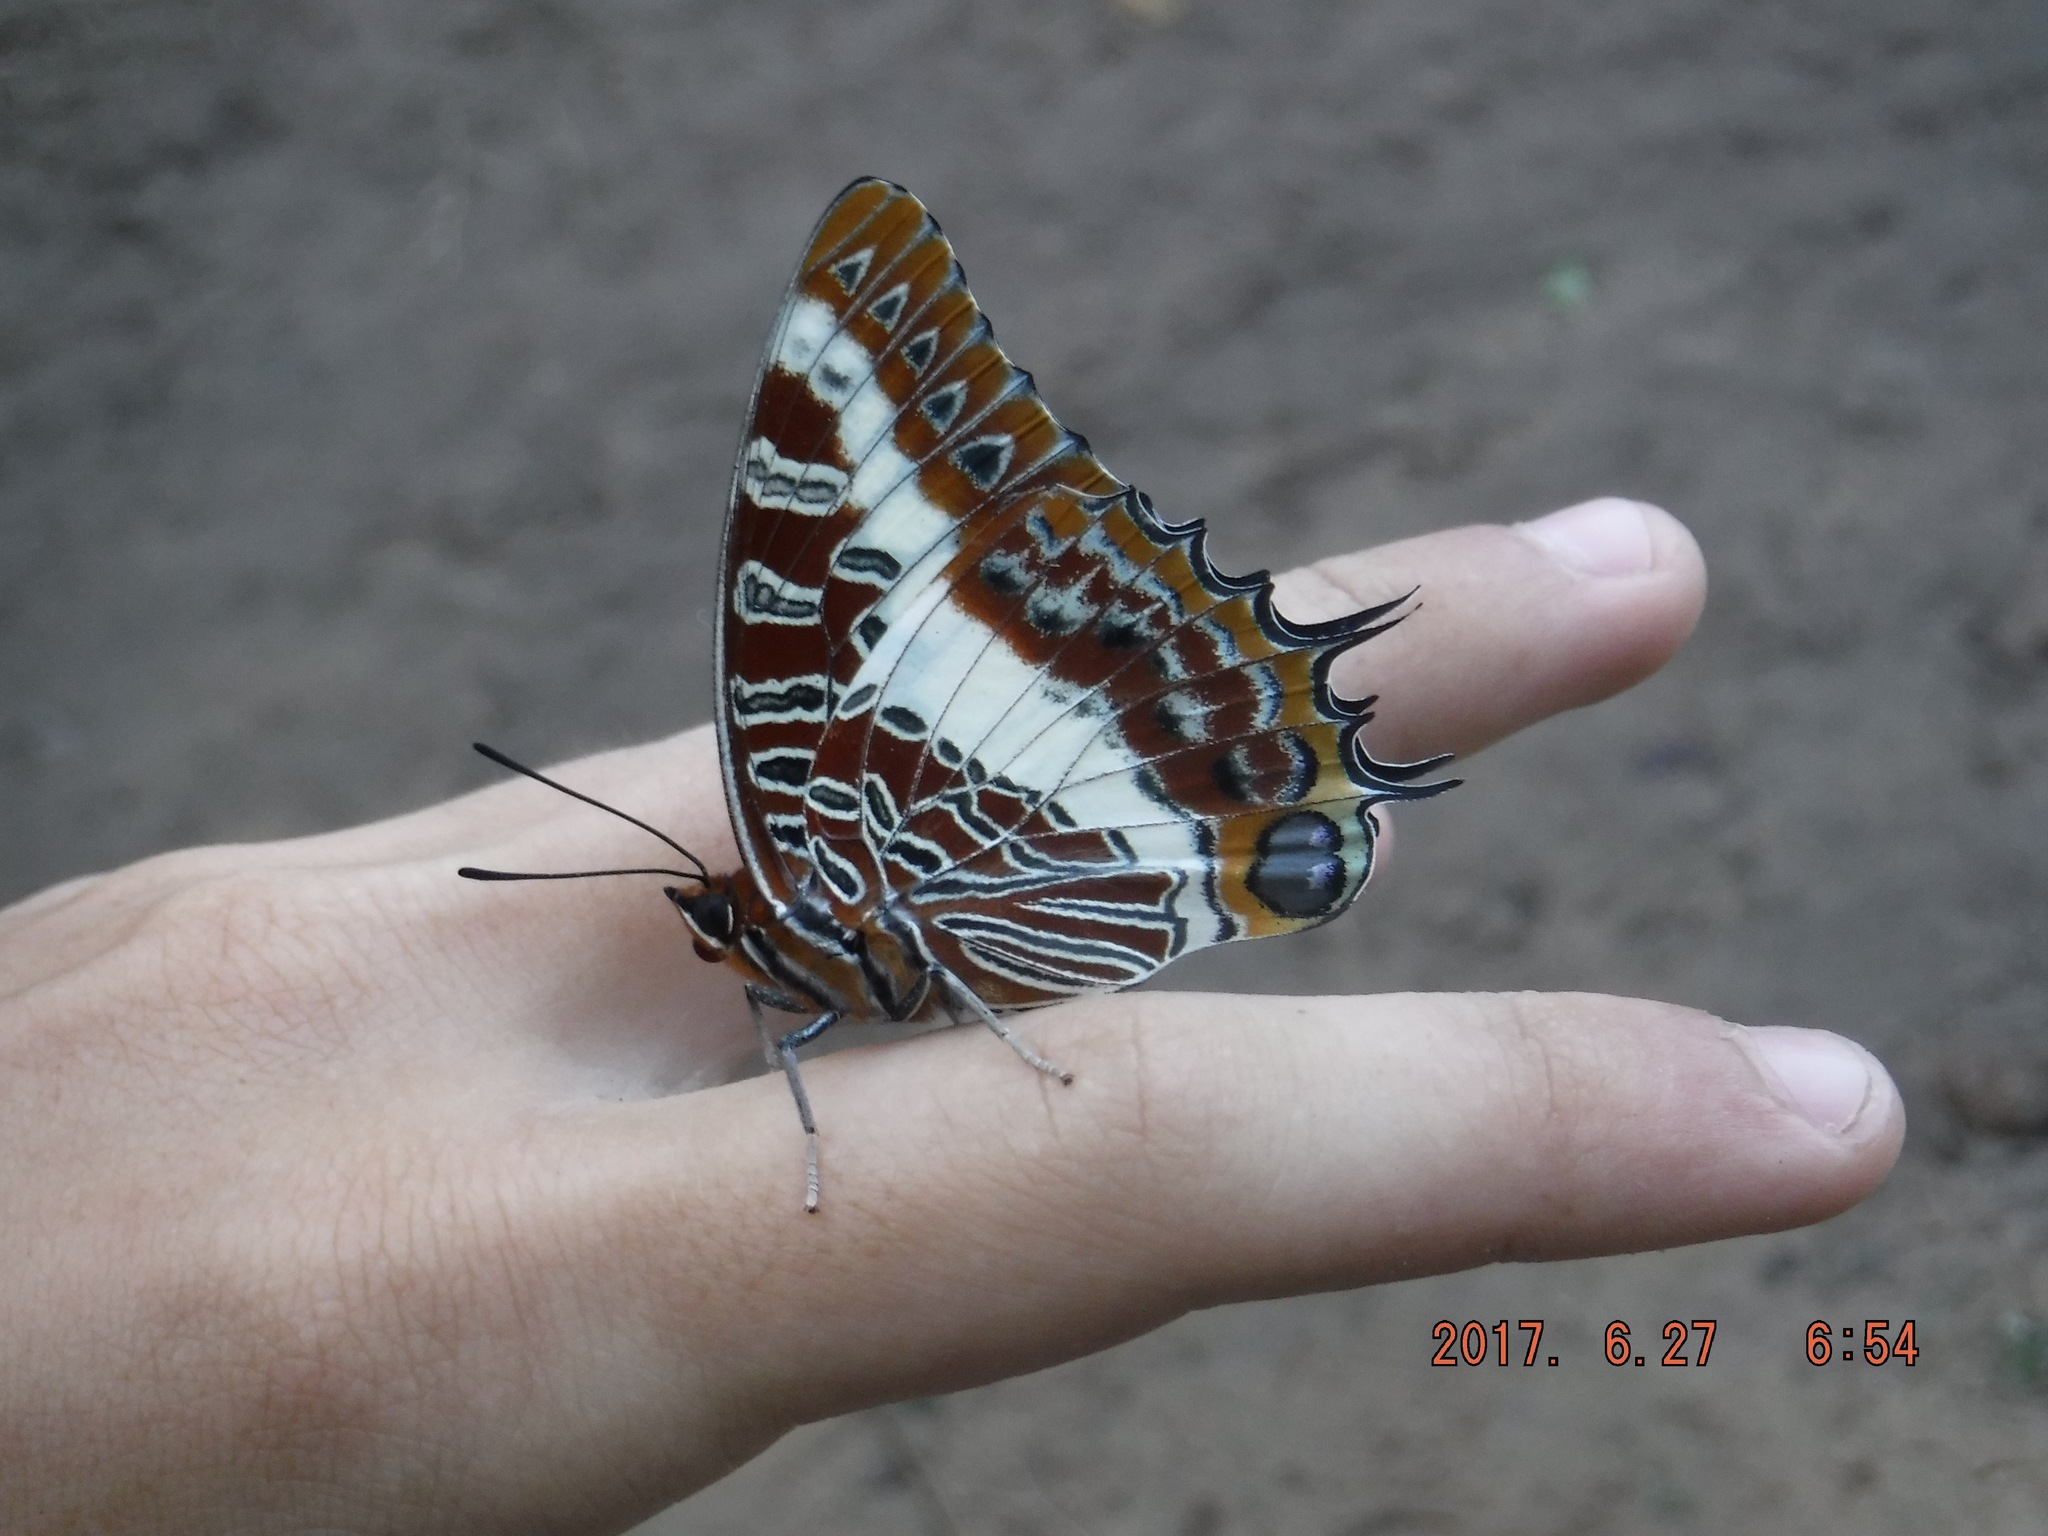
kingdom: Animalia
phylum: Arthropoda
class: Insecta
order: Lepidoptera
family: Nymphalidae
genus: Charaxes
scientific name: Charaxes brutus
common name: White-barred charaxes
